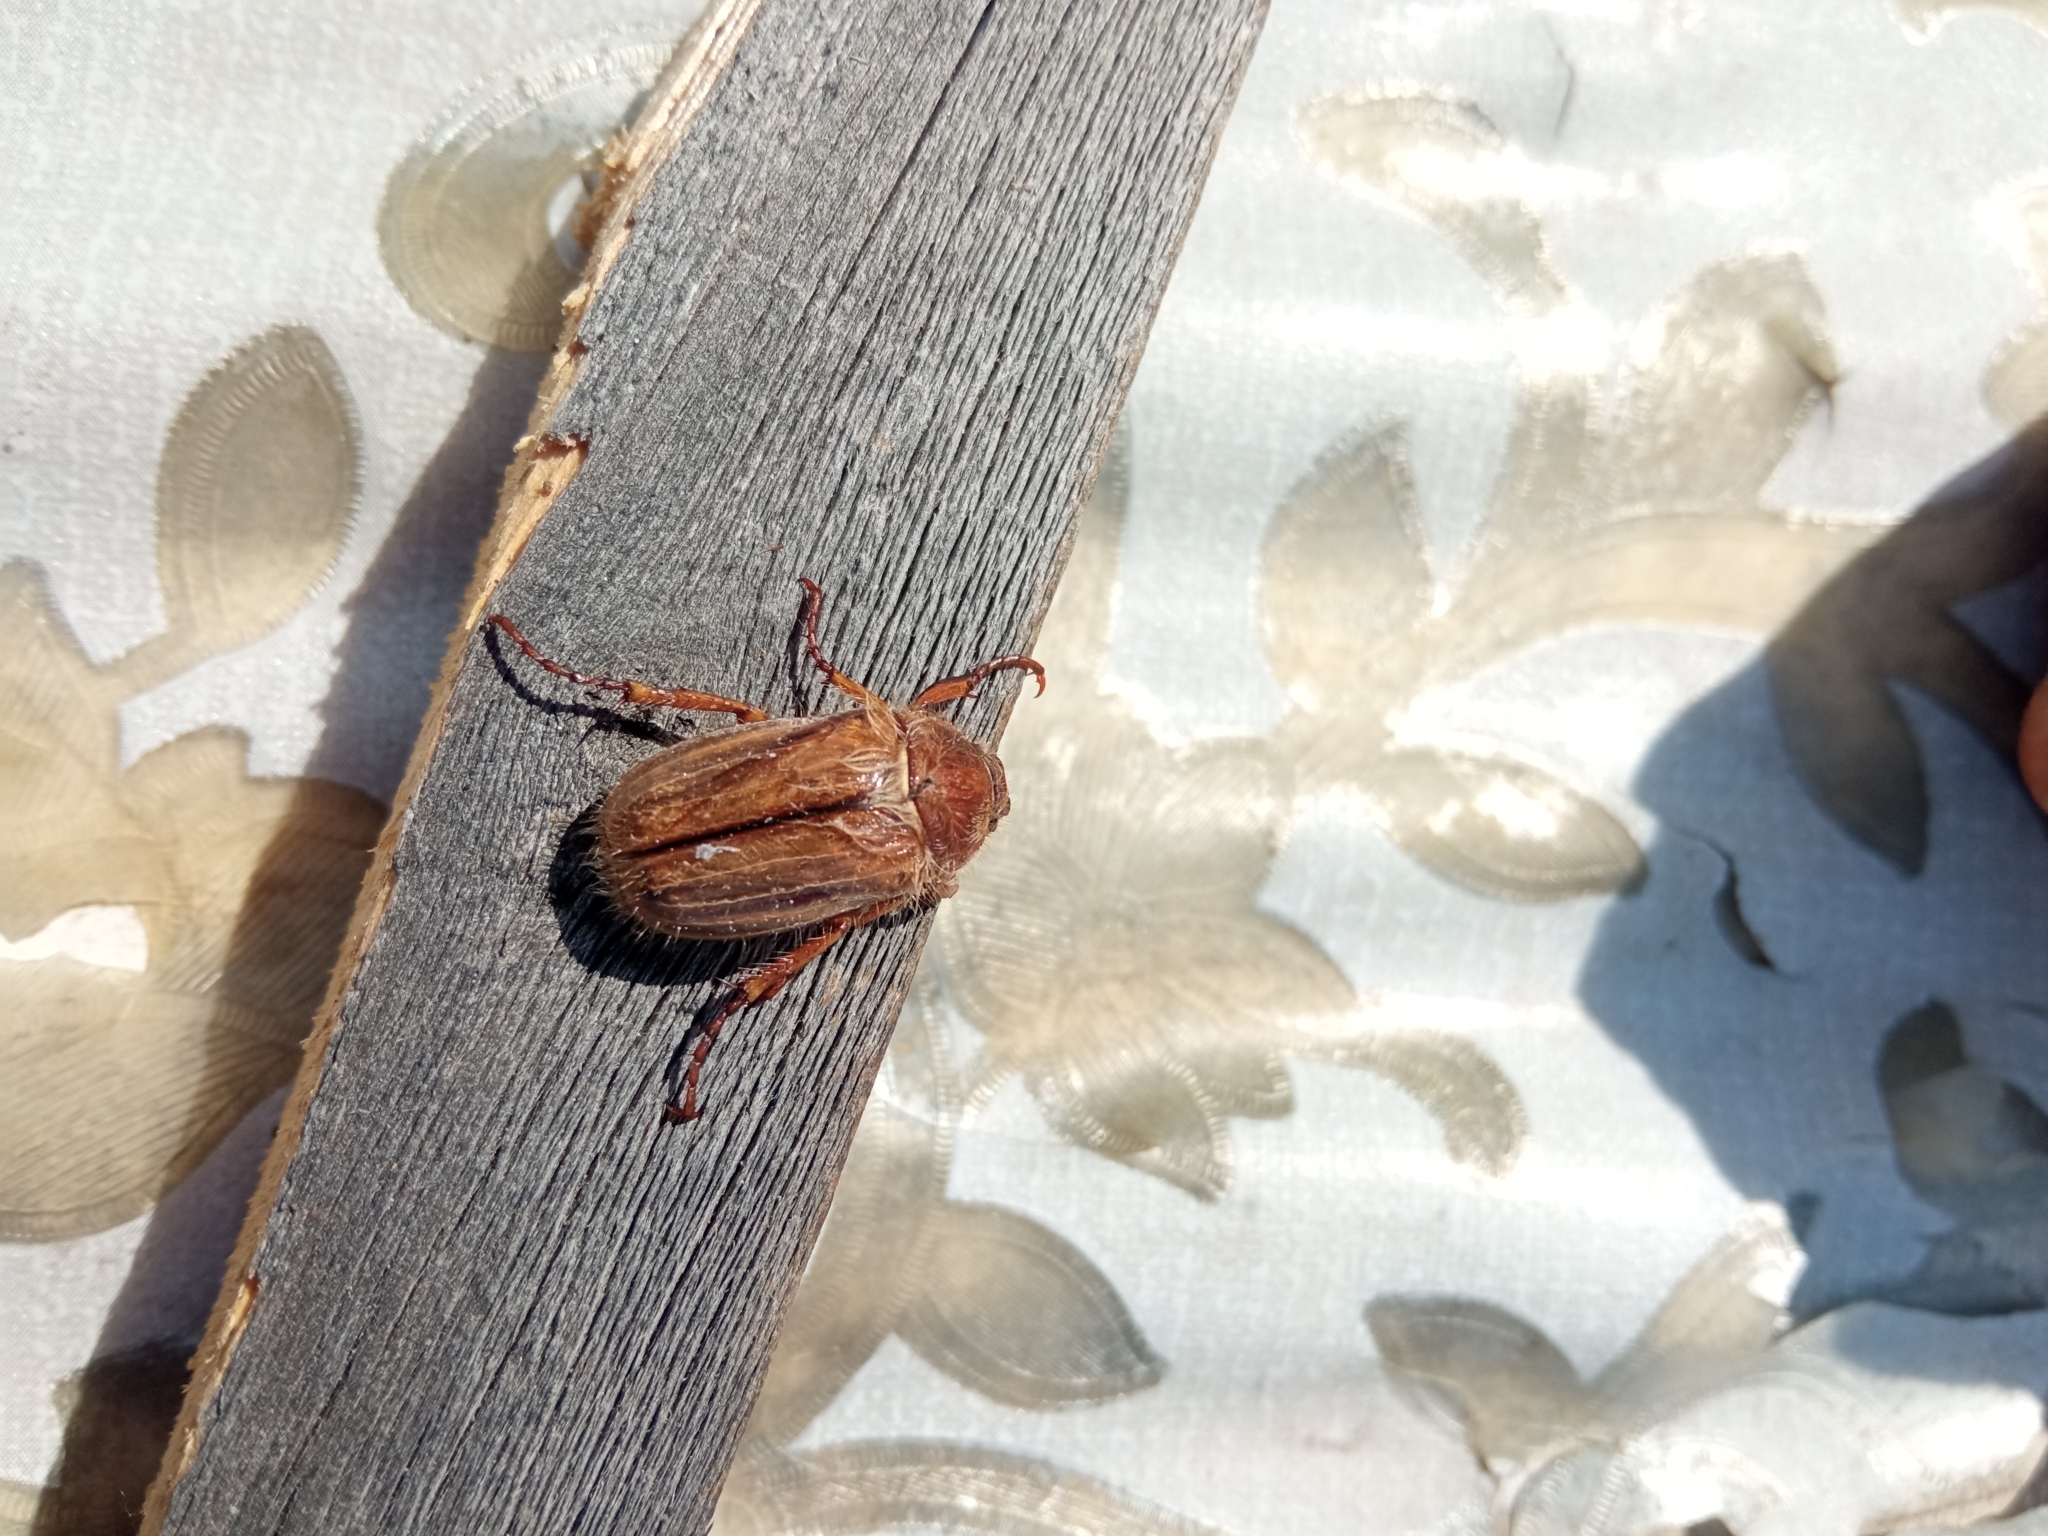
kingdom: Animalia
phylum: Arthropoda
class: Insecta
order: Coleoptera
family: Scarabaeidae
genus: Amphimallon
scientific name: Amphimallon solstitiale
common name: Summer chafer
